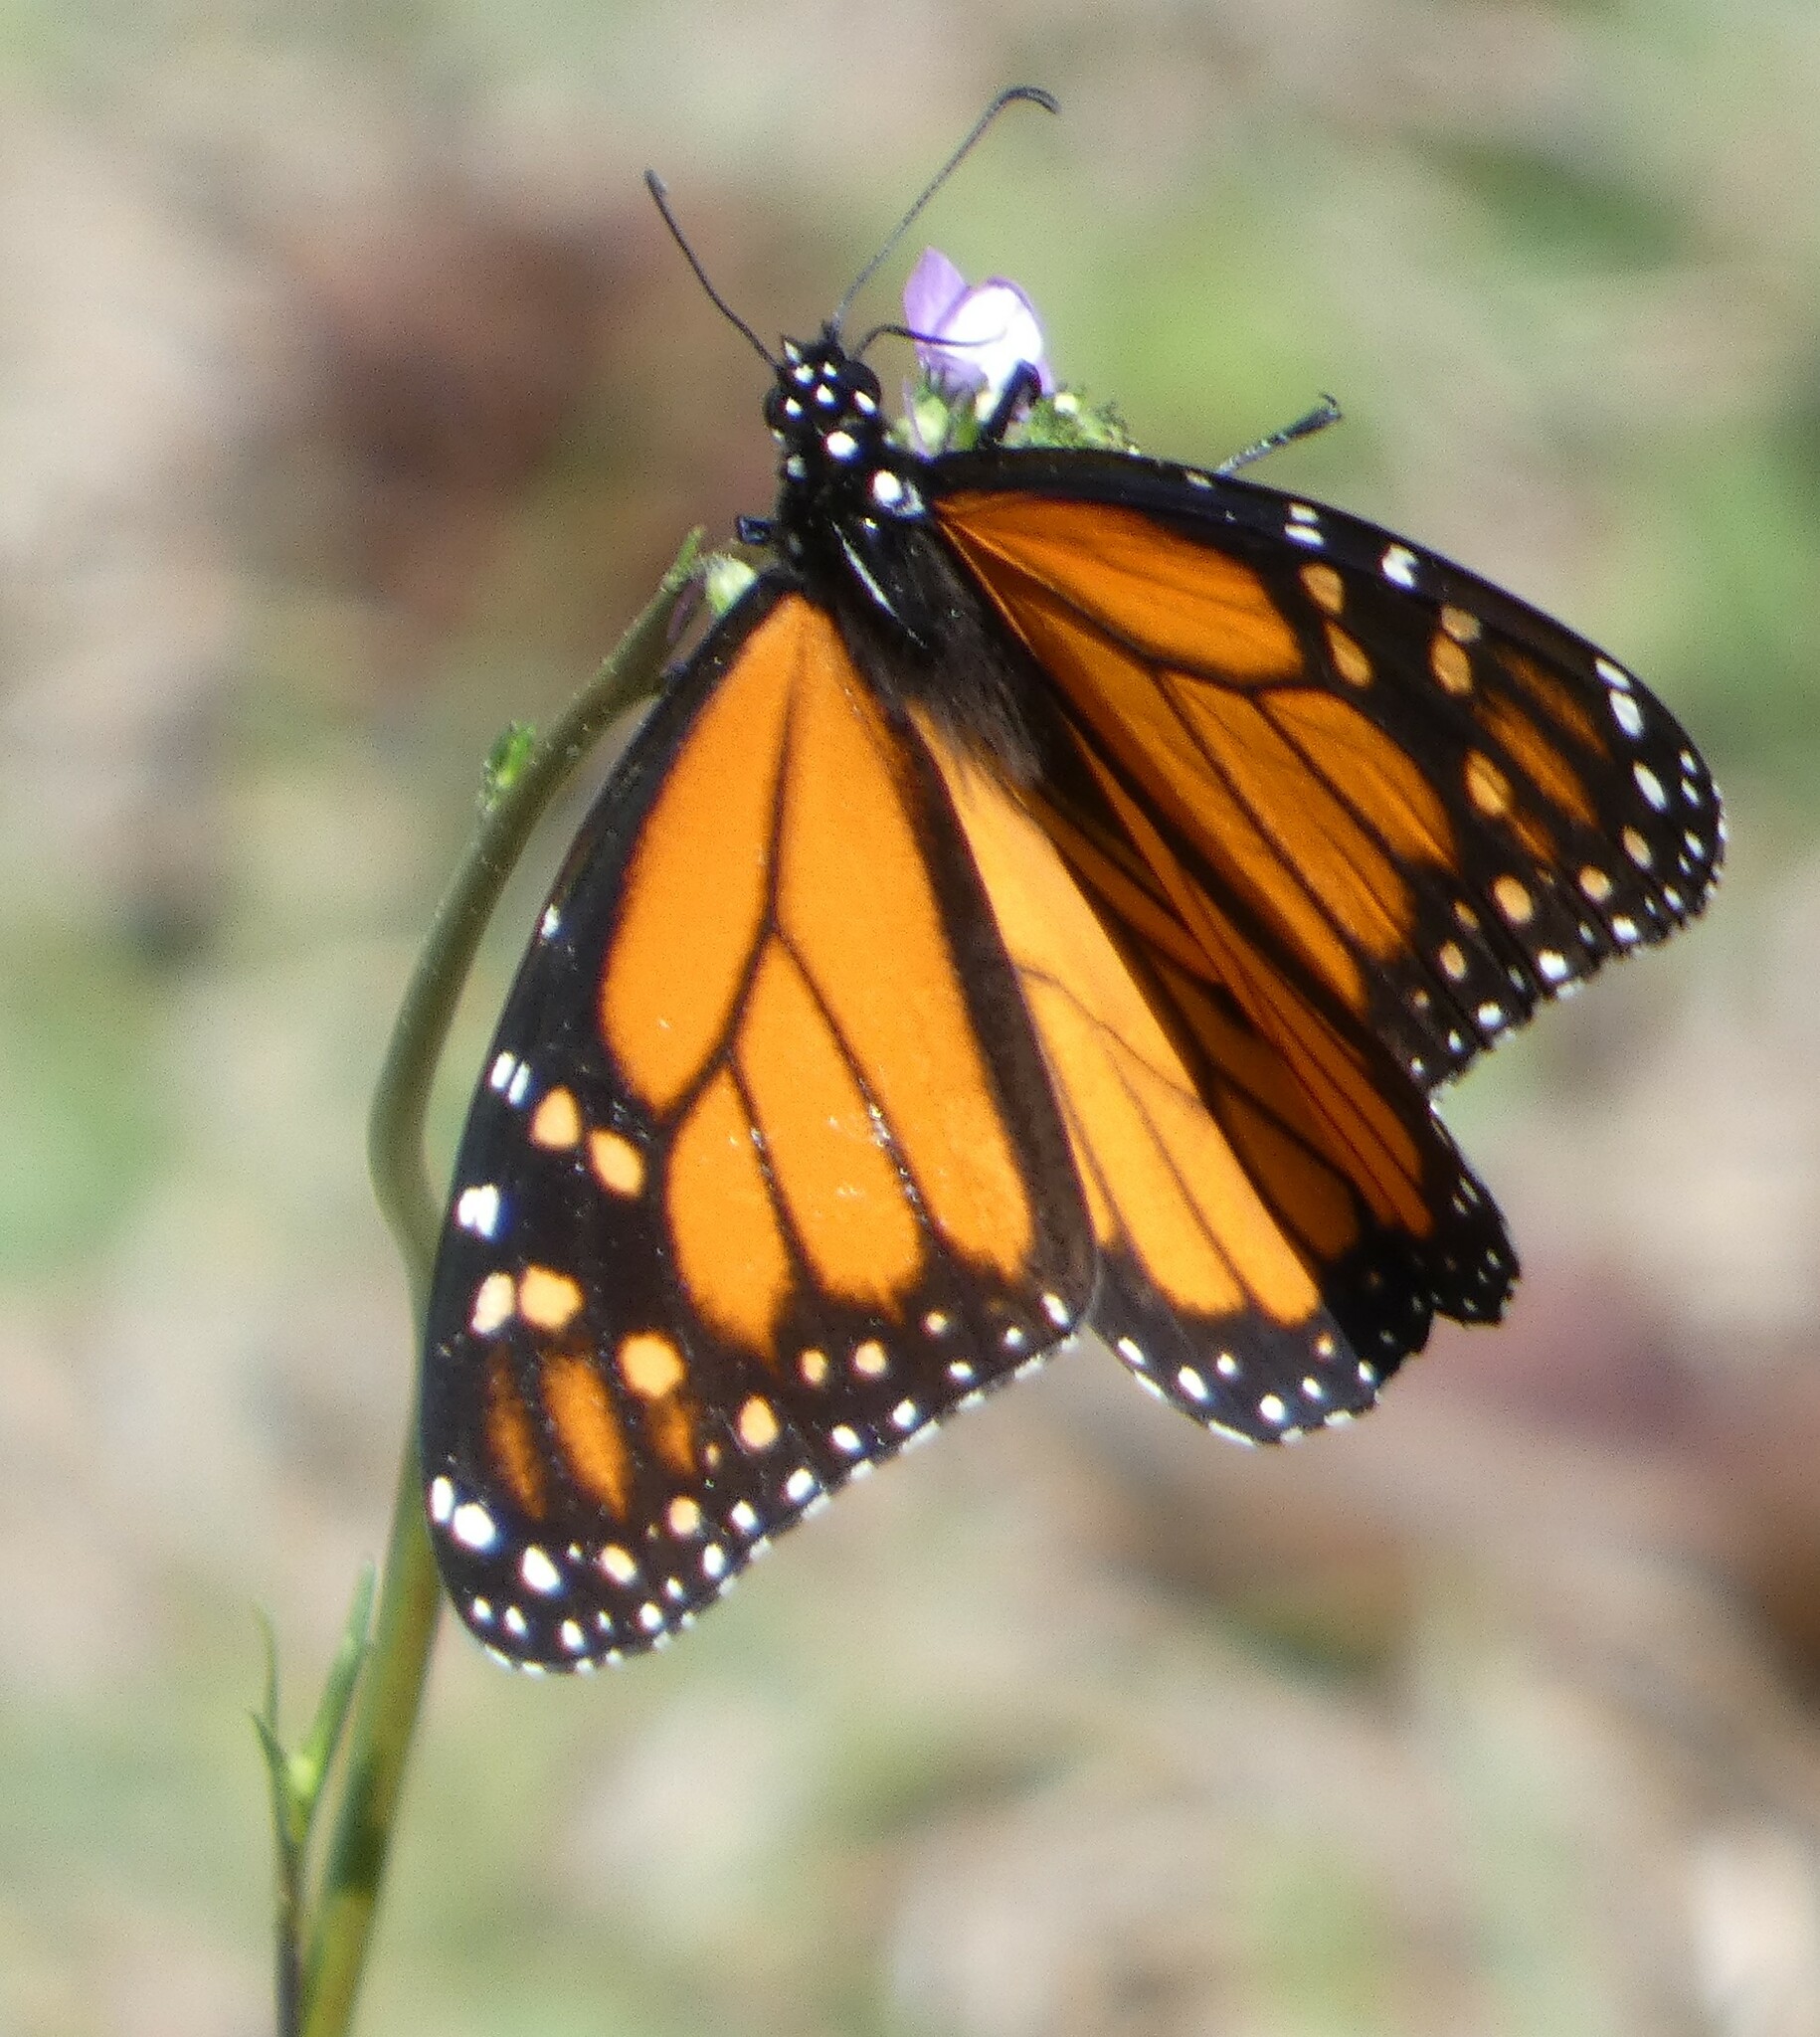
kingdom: Animalia
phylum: Arthropoda
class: Insecta
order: Lepidoptera
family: Nymphalidae
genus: Danaus
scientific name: Danaus plexippus
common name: Monarch
